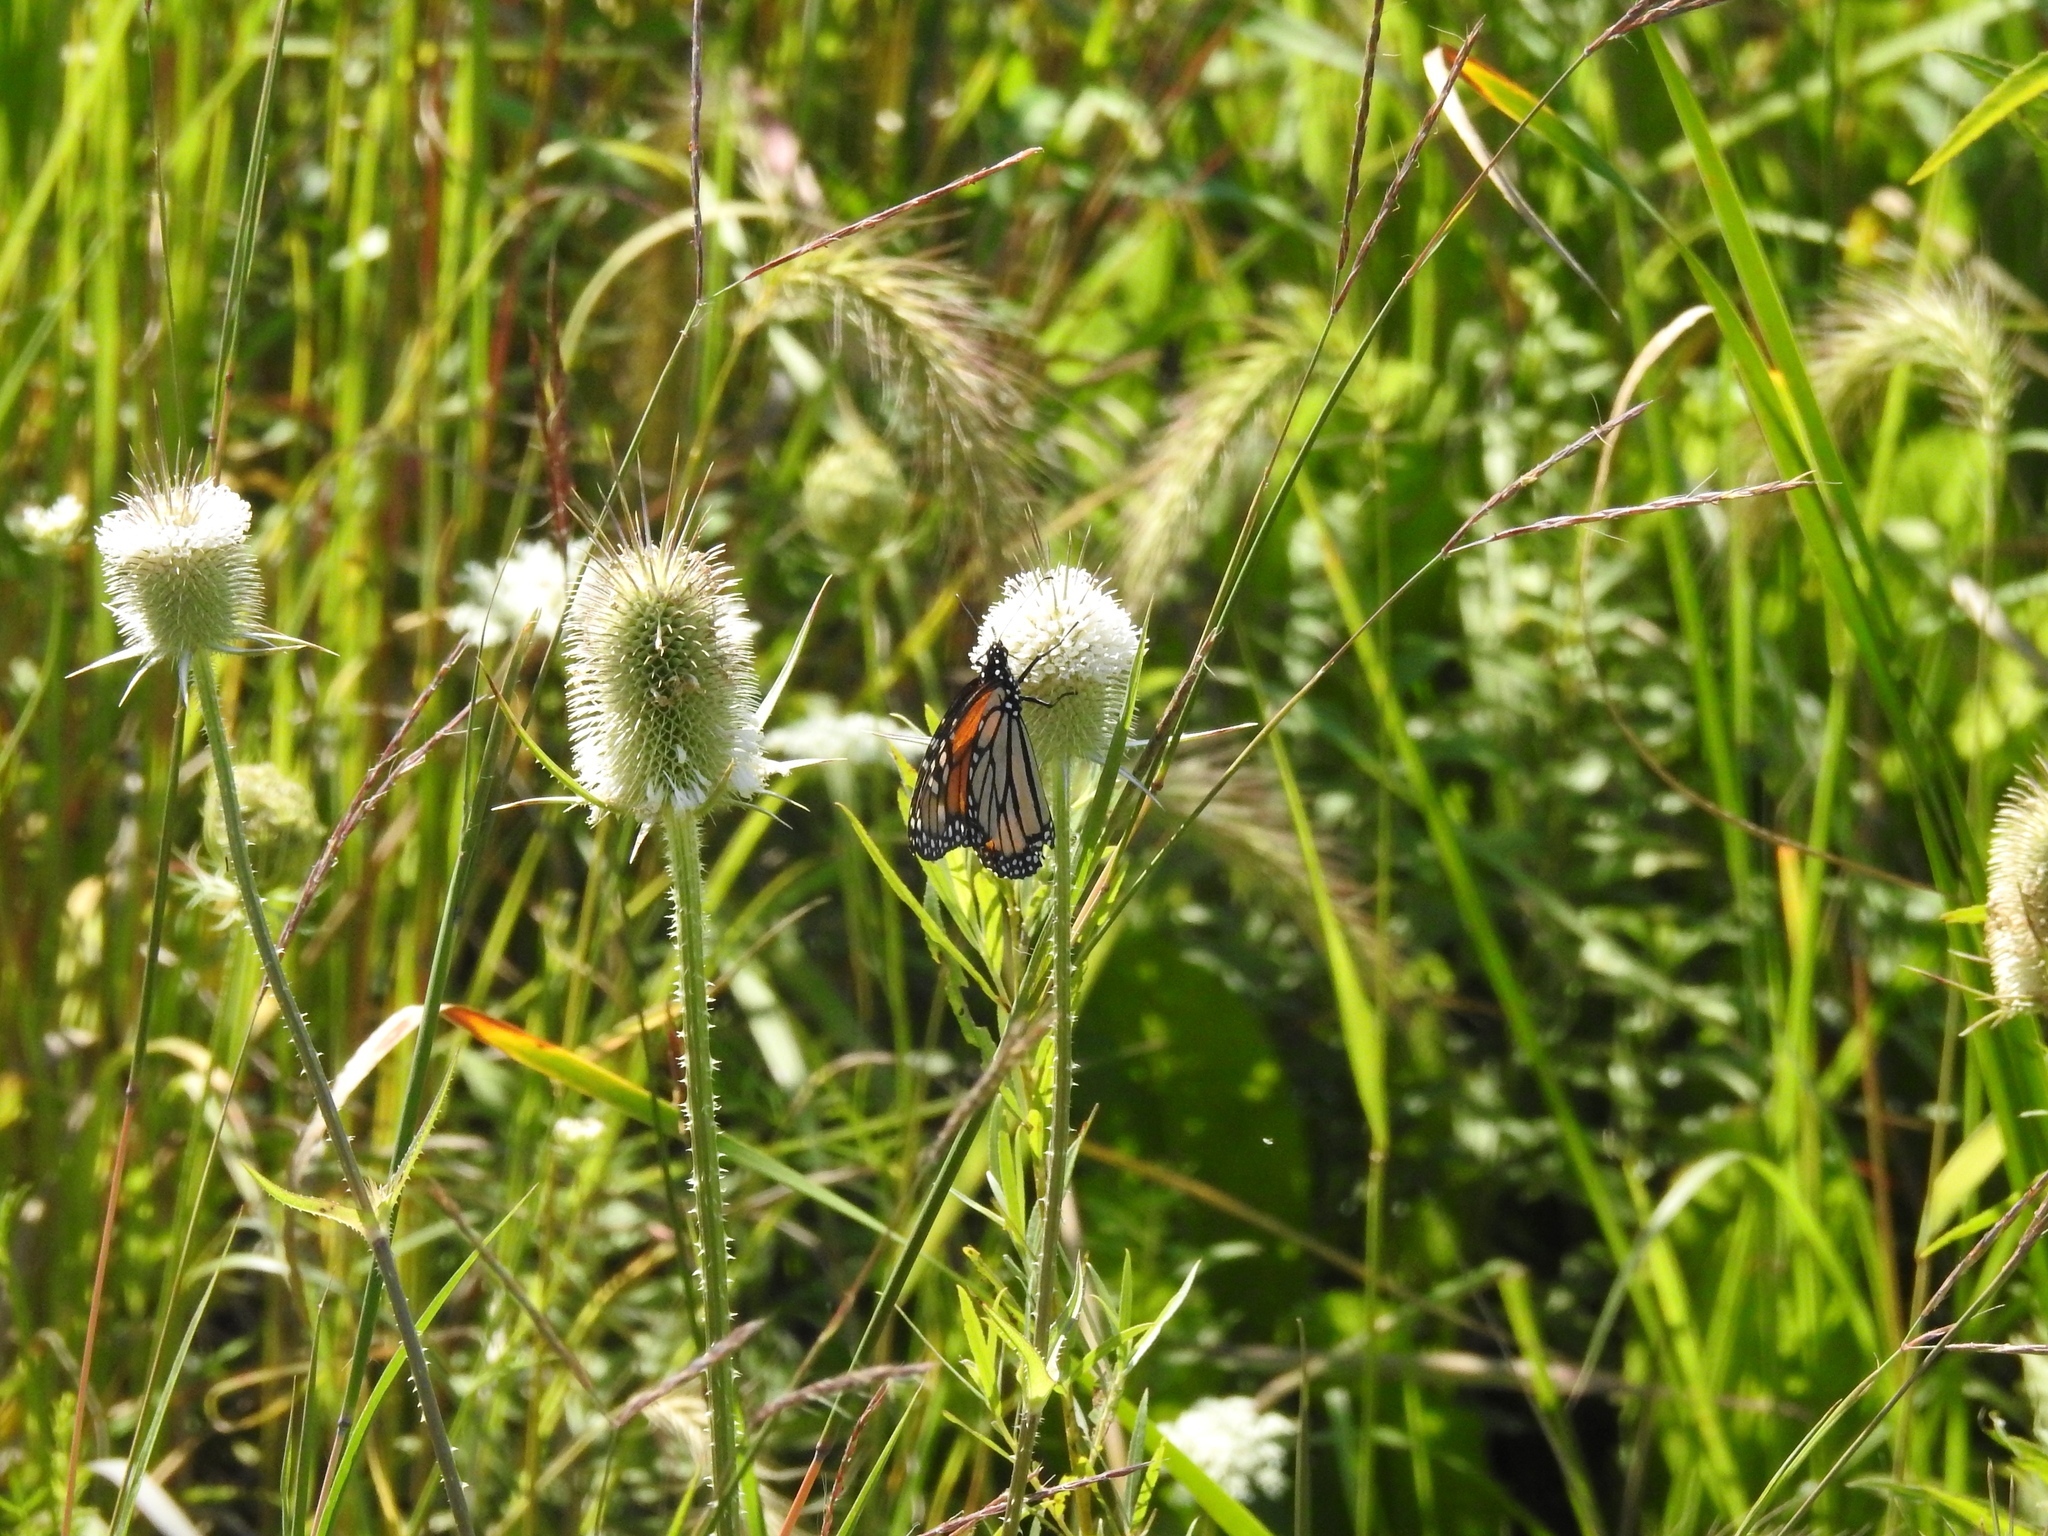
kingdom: Animalia
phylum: Arthropoda
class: Insecta
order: Lepidoptera
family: Nymphalidae
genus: Danaus
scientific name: Danaus plexippus
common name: Monarch
